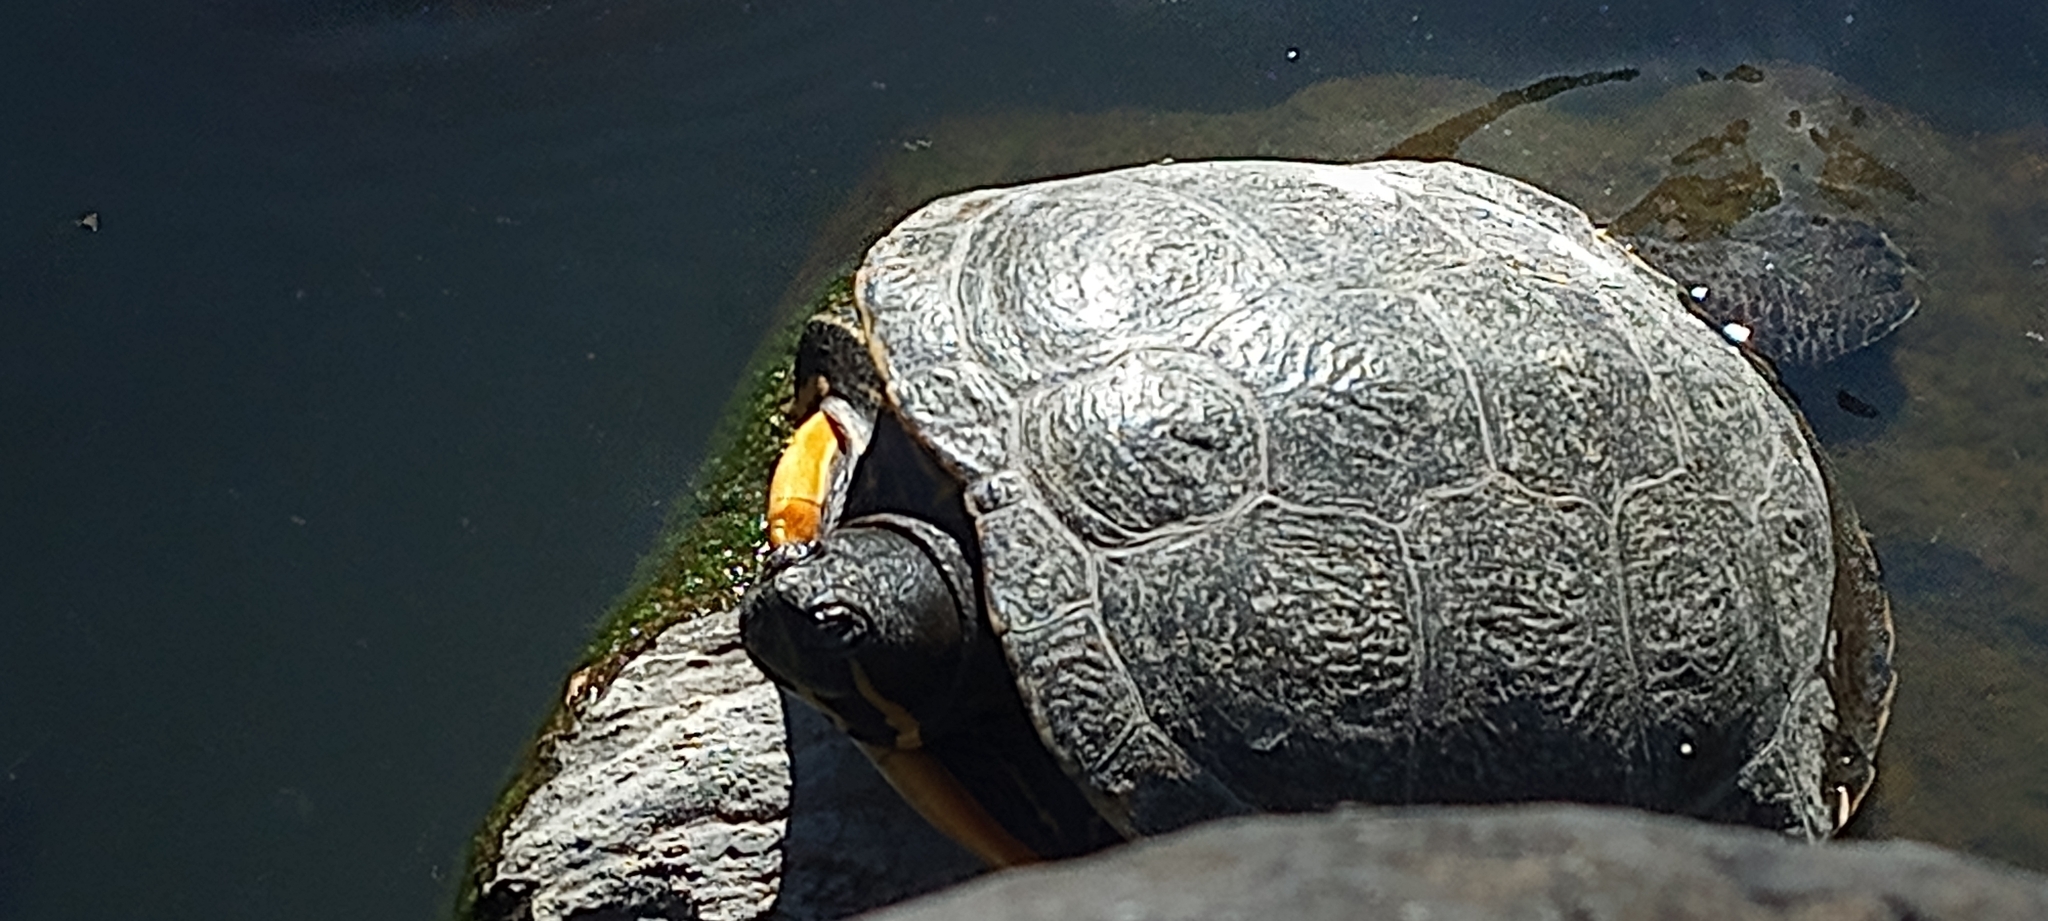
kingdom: Animalia
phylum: Chordata
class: Testudines
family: Emydidae
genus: Trachemys
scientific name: Trachemys ornata
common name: Ornate slider
